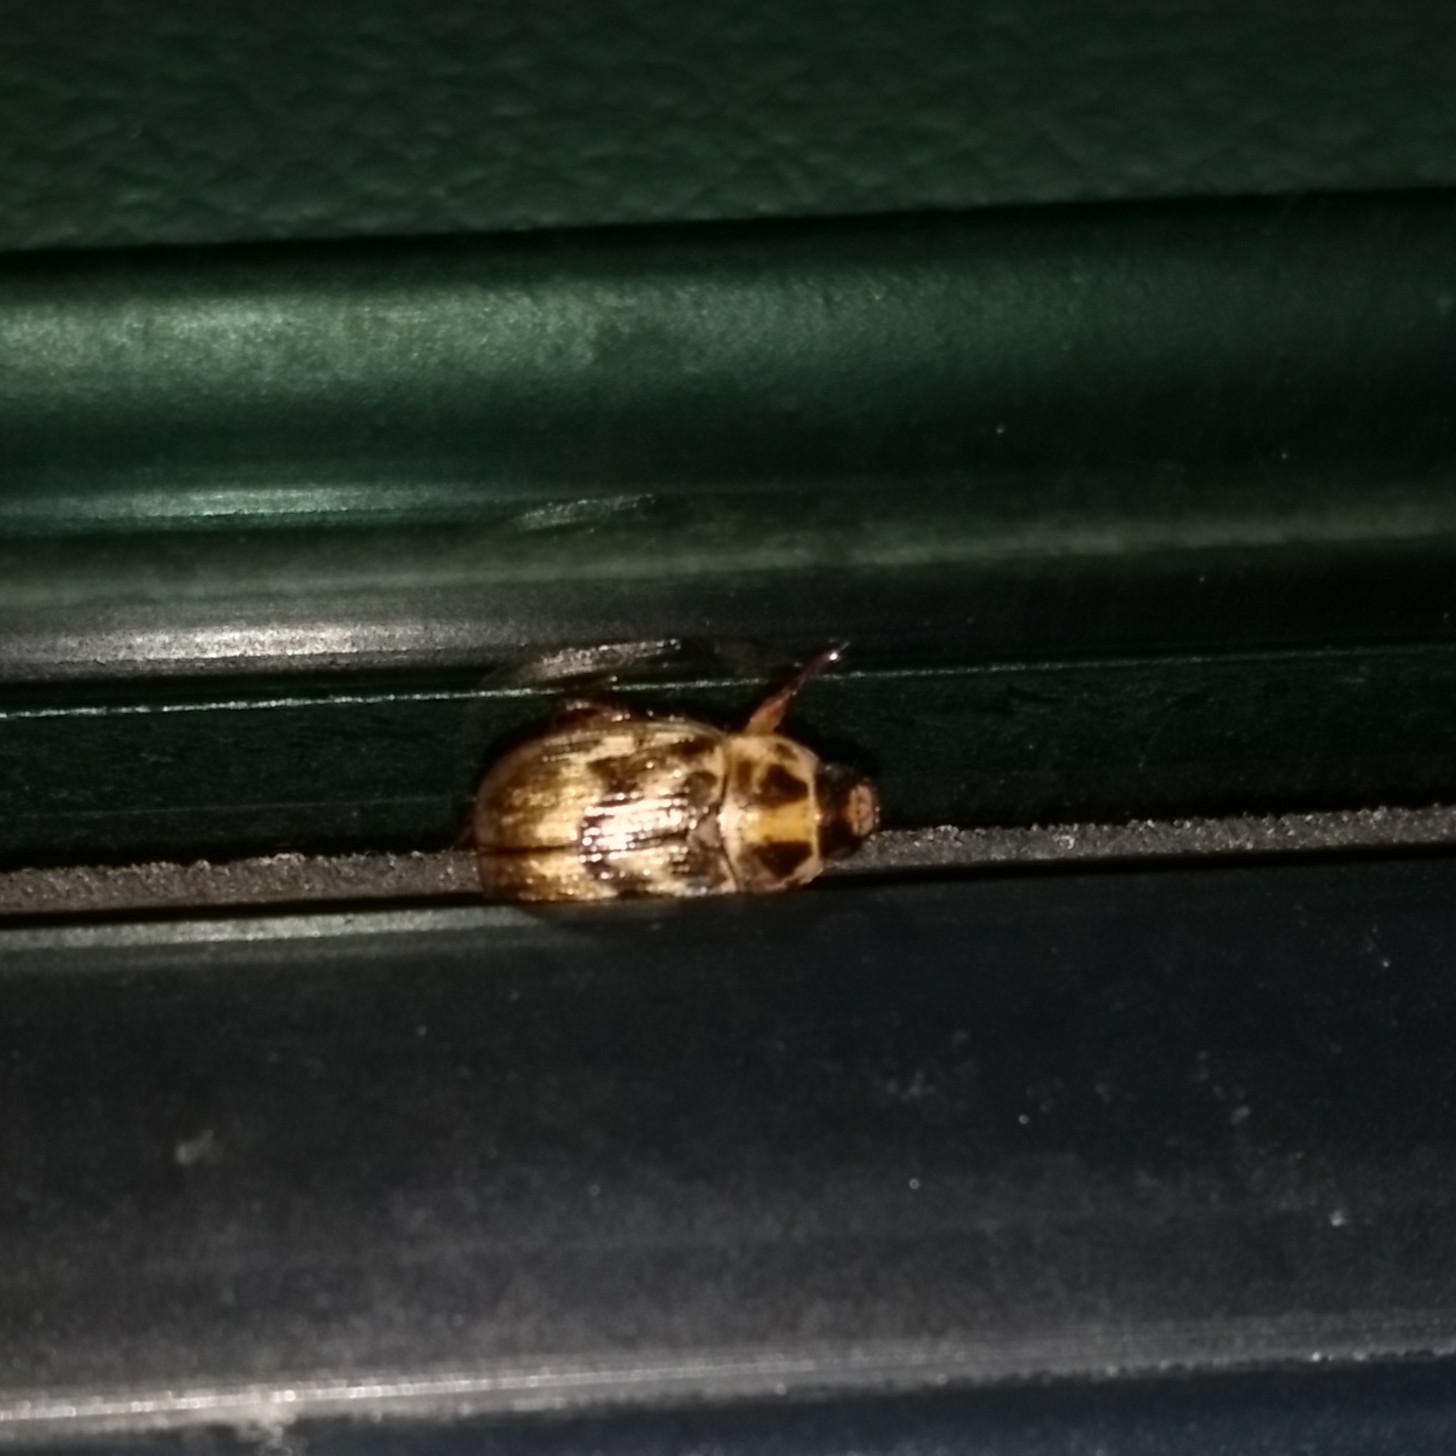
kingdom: Animalia
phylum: Arthropoda
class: Insecta
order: Coleoptera
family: Scarabaeidae
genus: Exomala
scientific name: Exomala orientalis
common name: Oriental beetle
